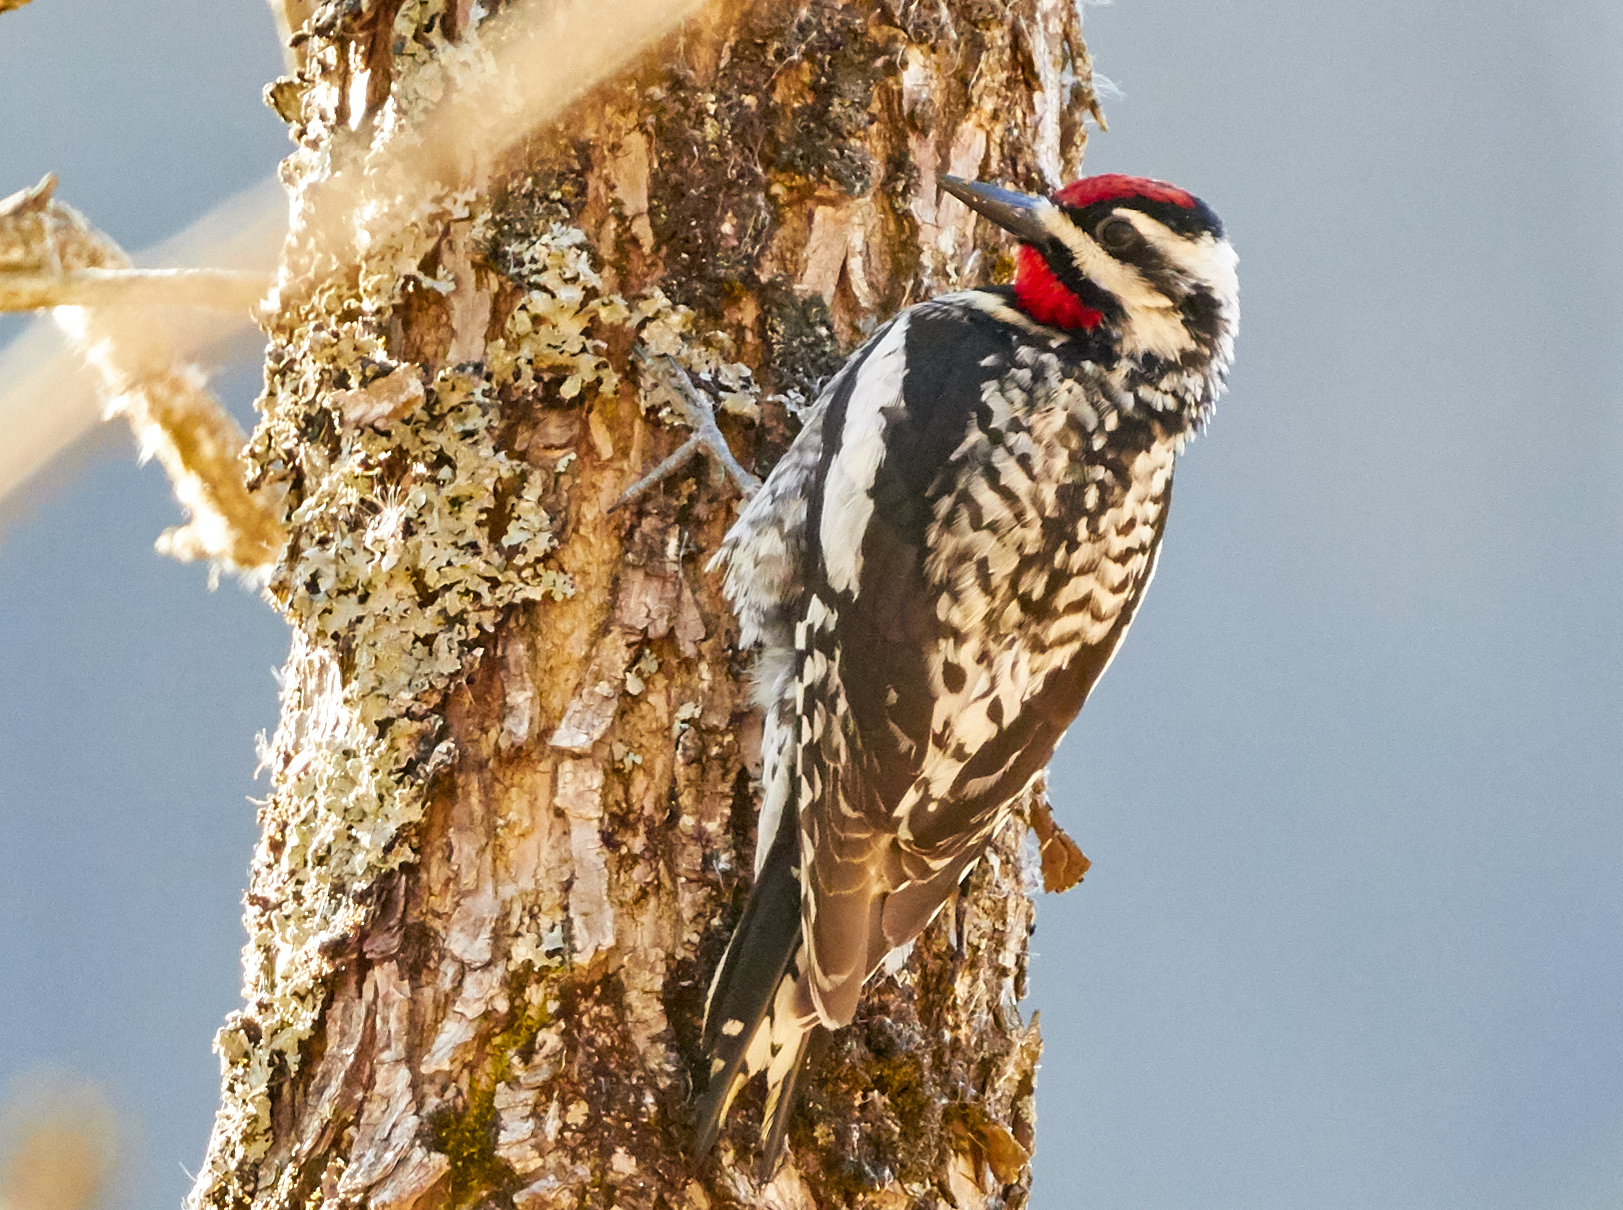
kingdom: Animalia
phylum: Chordata
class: Aves
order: Piciformes
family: Picidae
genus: Sphyrapicus
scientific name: Sphyrapicus varius
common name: Yellow-bellied sapsucker
